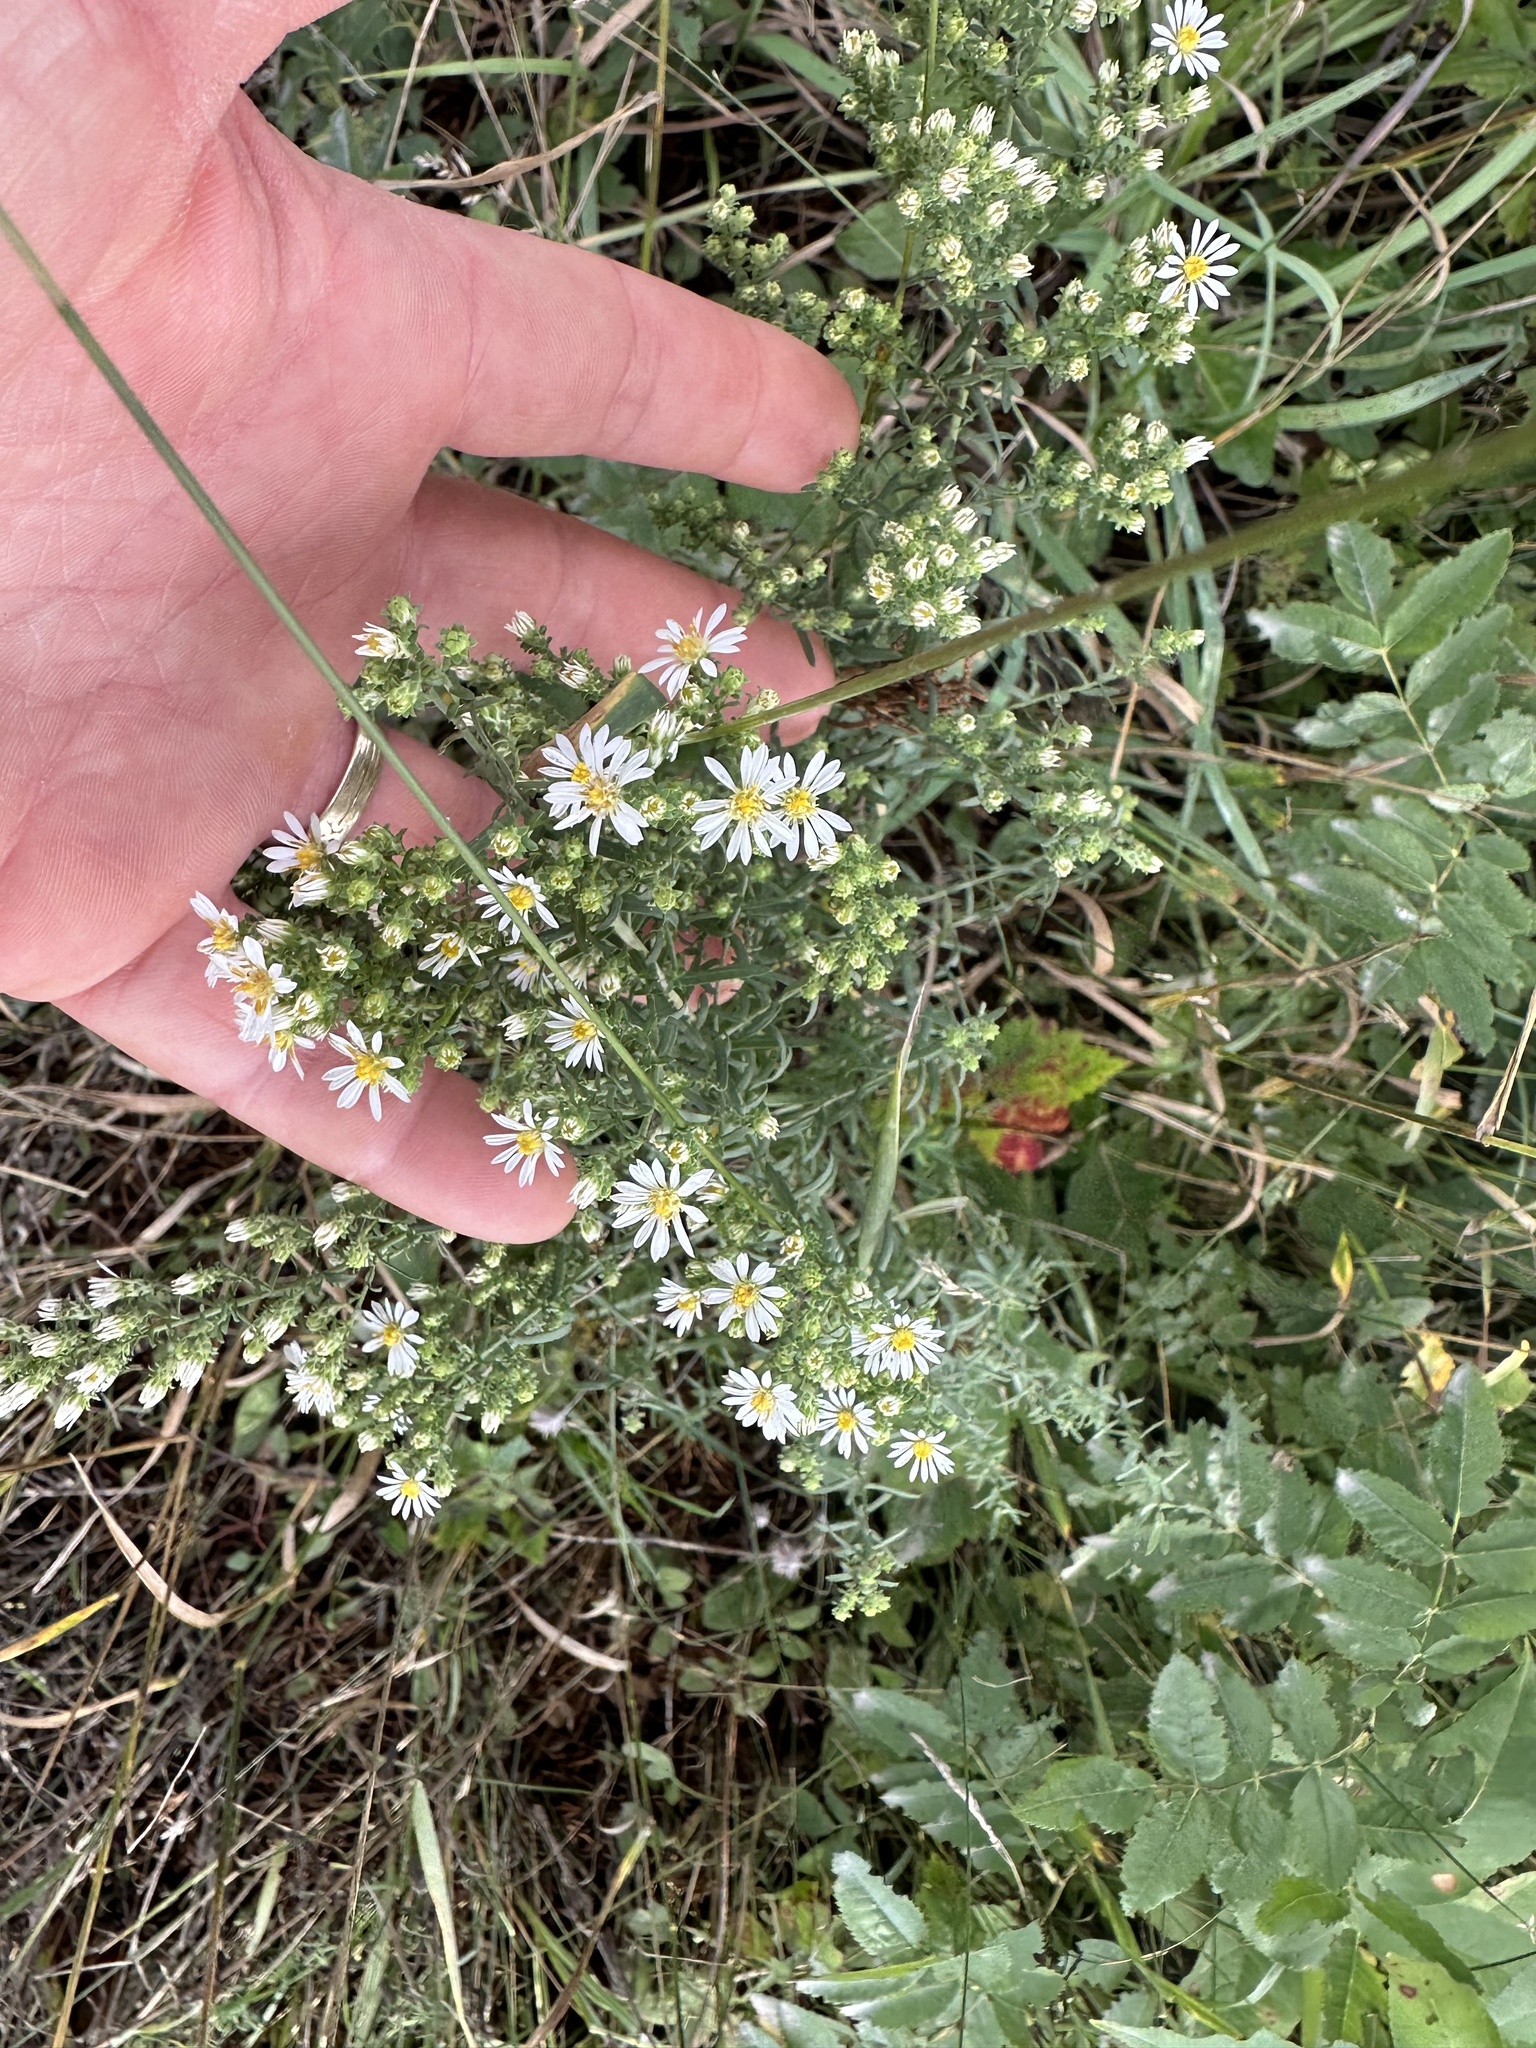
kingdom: Plantae
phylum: Tracheophyta
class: Magnoliopsida
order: Asterales
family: Asteraceae
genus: Symphyotrichum
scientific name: Symphyotrichum ericoides
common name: Heath aster
